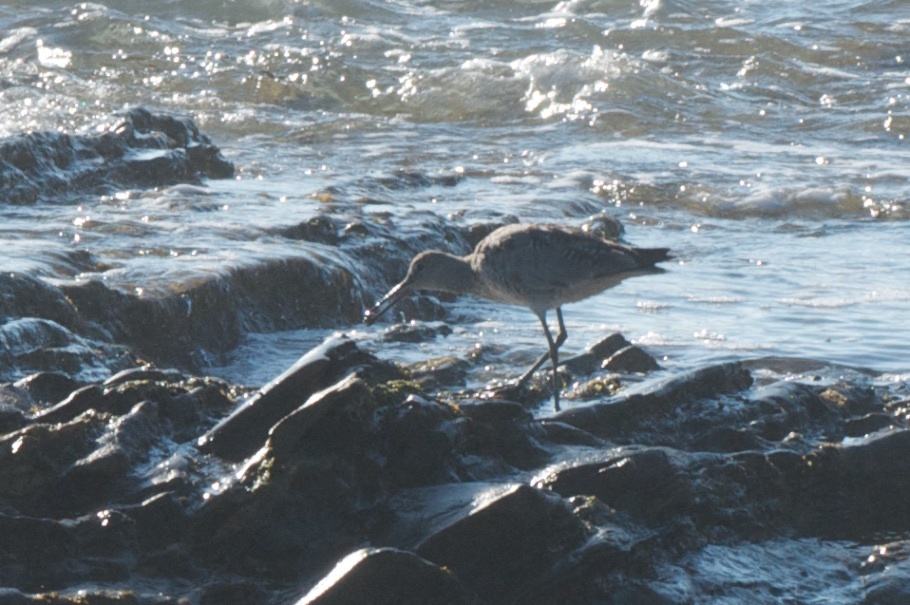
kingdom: Animalia
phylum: Chordata
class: Aves
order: Charadriiformes
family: Scolopacidae
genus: Tringa
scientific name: Tringa semipalmata
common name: Willet
